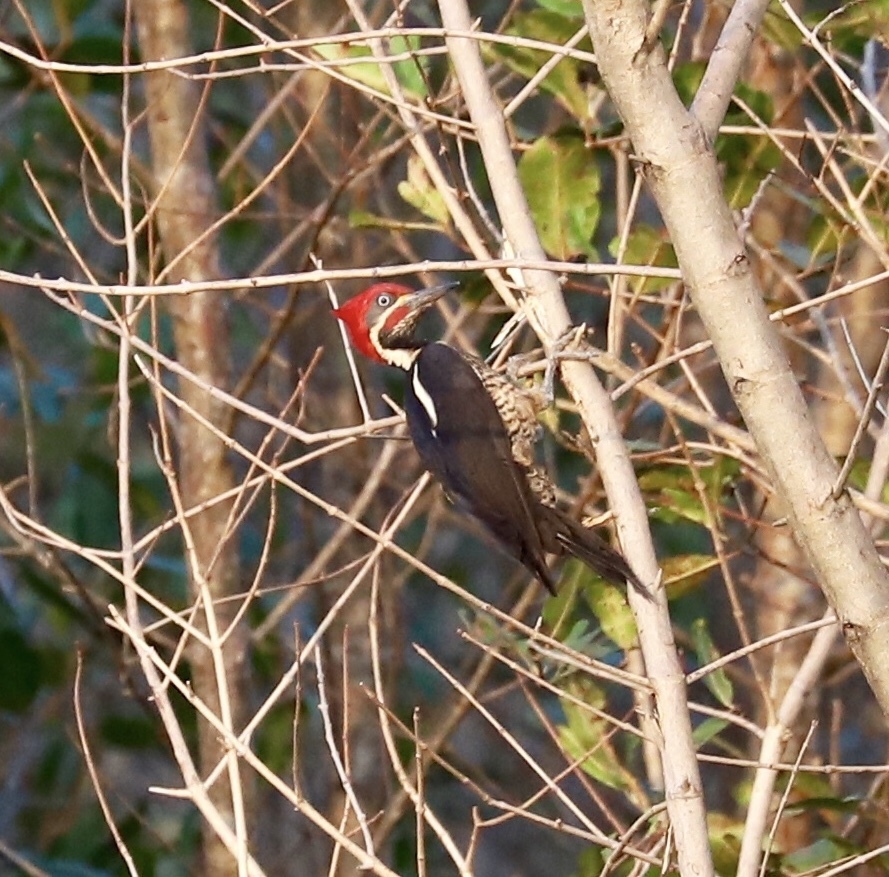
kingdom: Animalia
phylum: Chordata
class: Aves
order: Piciformes
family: Picidae
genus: Dryocopus
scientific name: Dryocopus lineatus
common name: Lineated woodpecker
